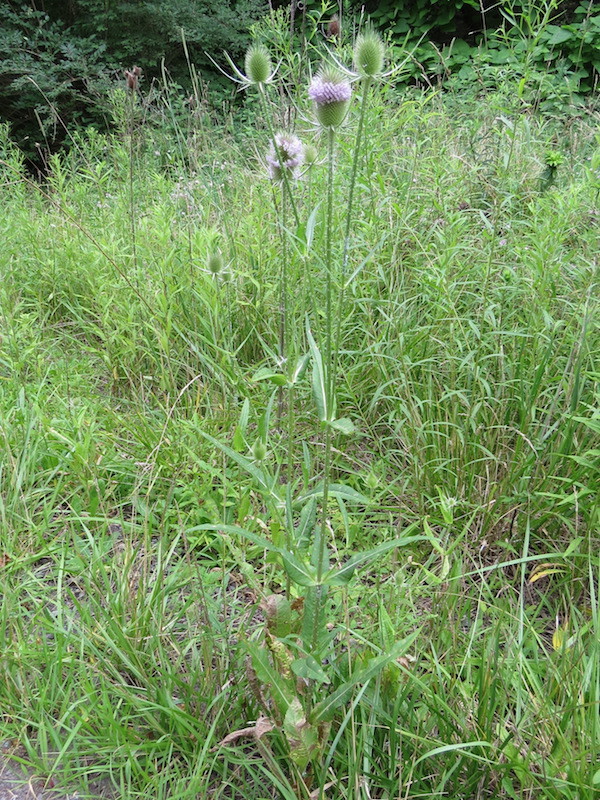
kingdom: Plantae
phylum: Tracheophyta
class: Magnoliopsida
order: Dipsacales
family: Caprifoliaceae
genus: Dipsacus
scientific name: Dipsacus fullonum
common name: Teasel
